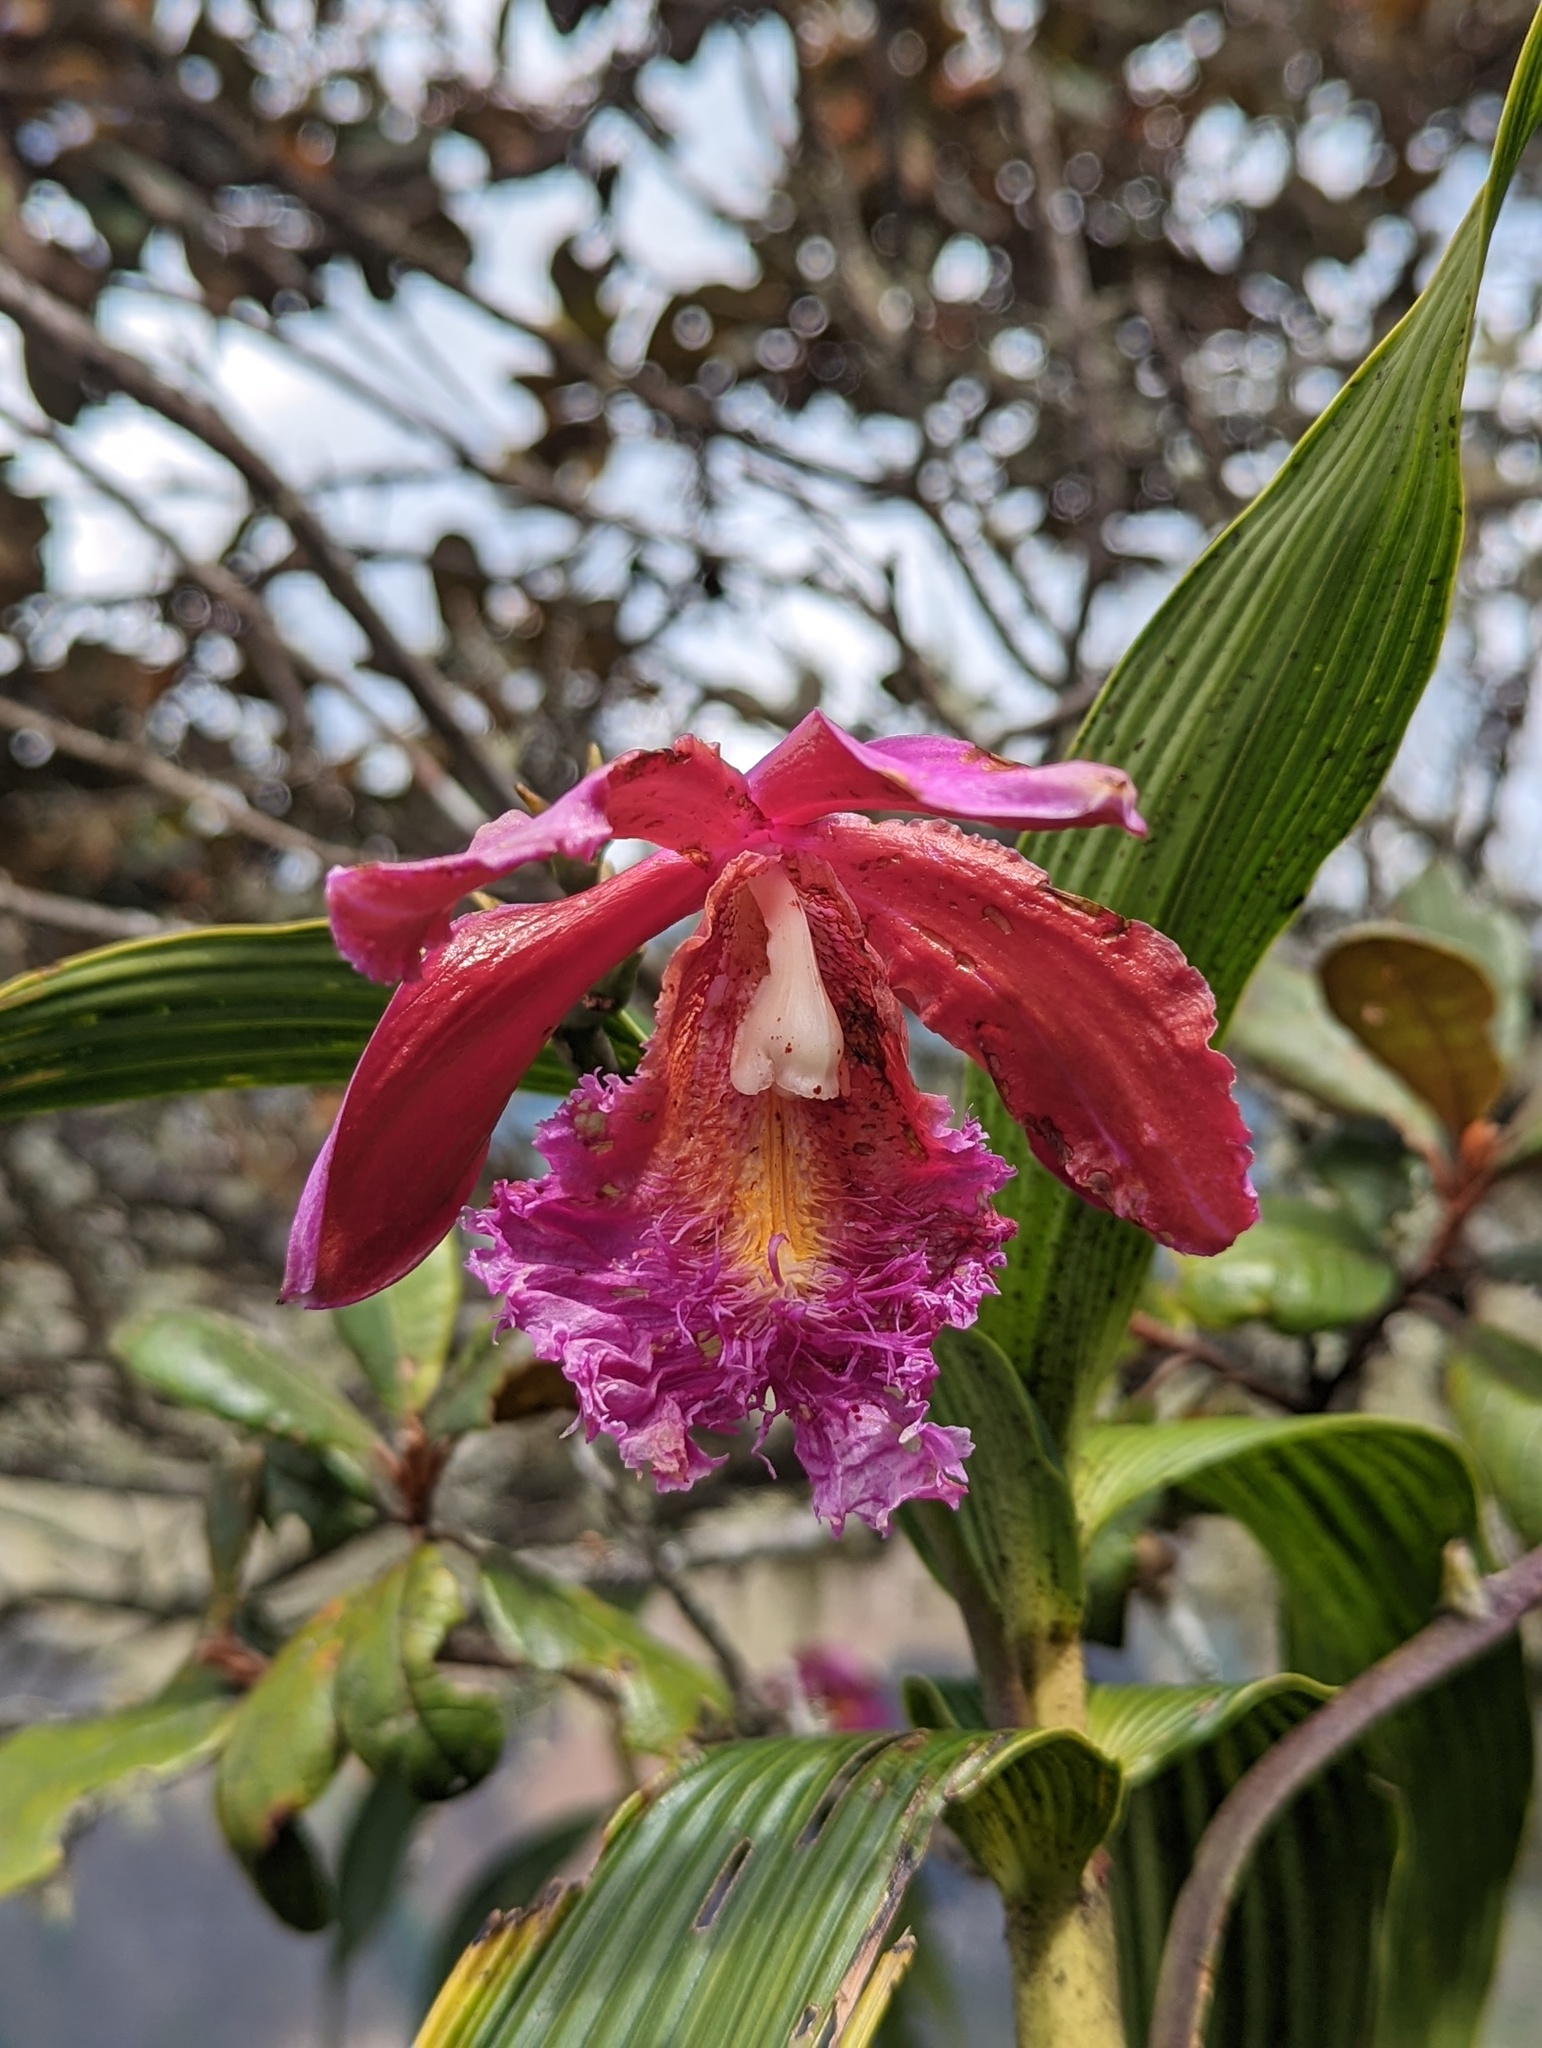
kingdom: Plantae
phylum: Tracheophyta
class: Liliopsida
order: Asparagales
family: Orchidaceae
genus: Sobralia
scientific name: Sobralia dichotoma
